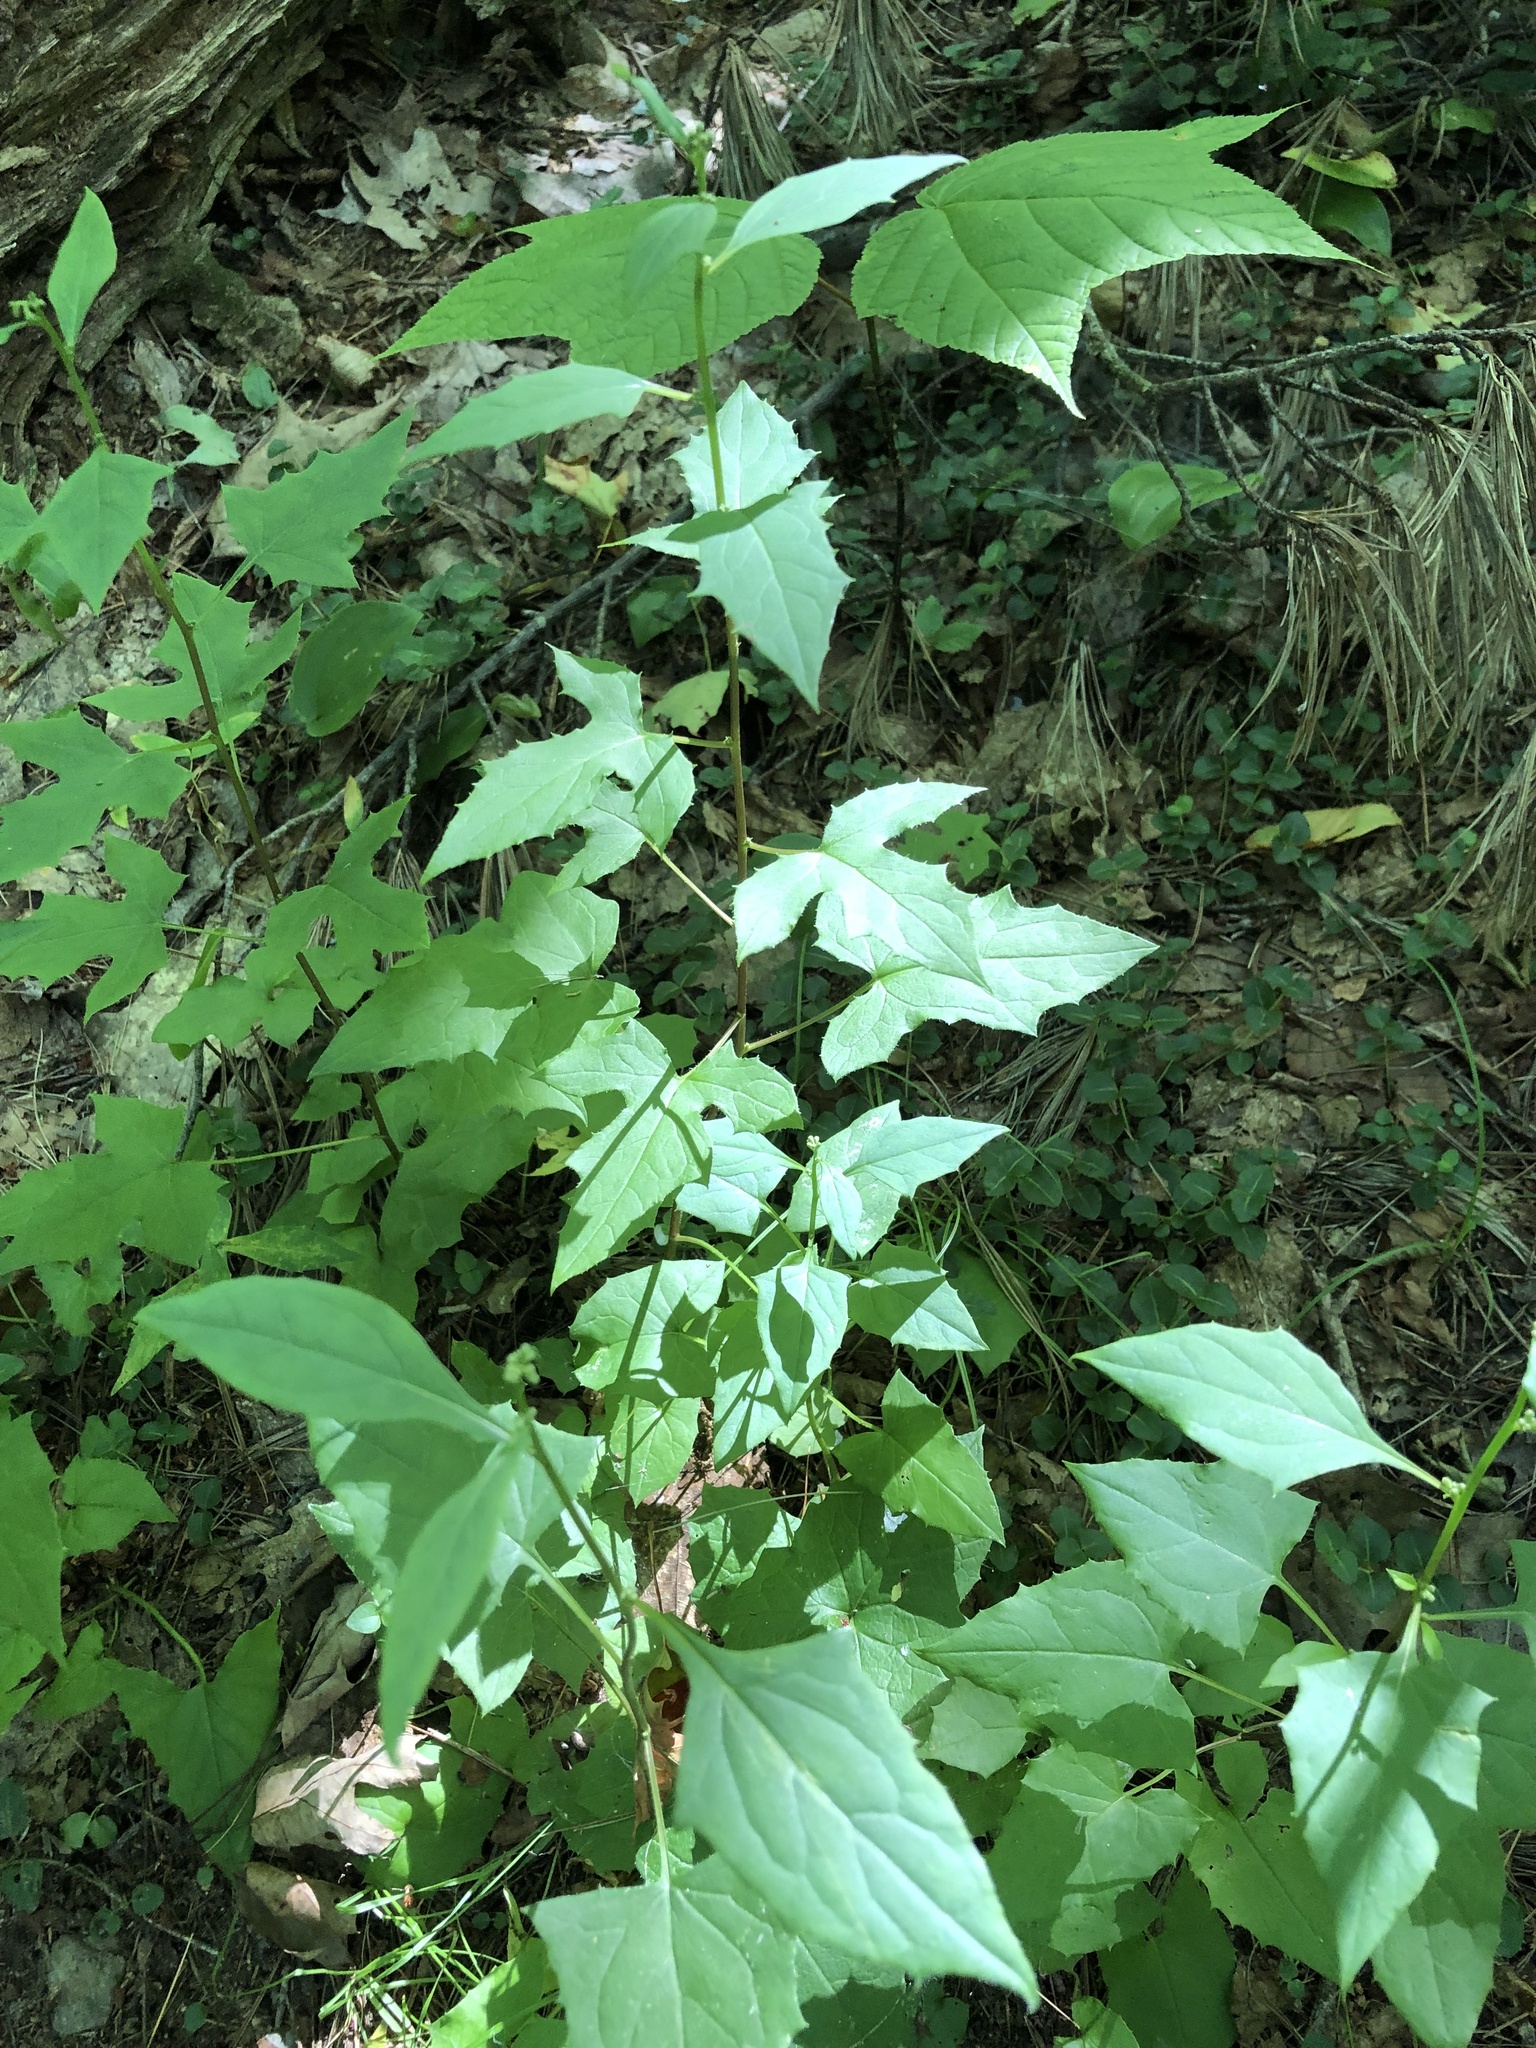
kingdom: Plantae
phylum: Tracheophyta
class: Magnoliopsida
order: Asterales
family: Asteraceae
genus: Nabalus
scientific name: Nabalus
